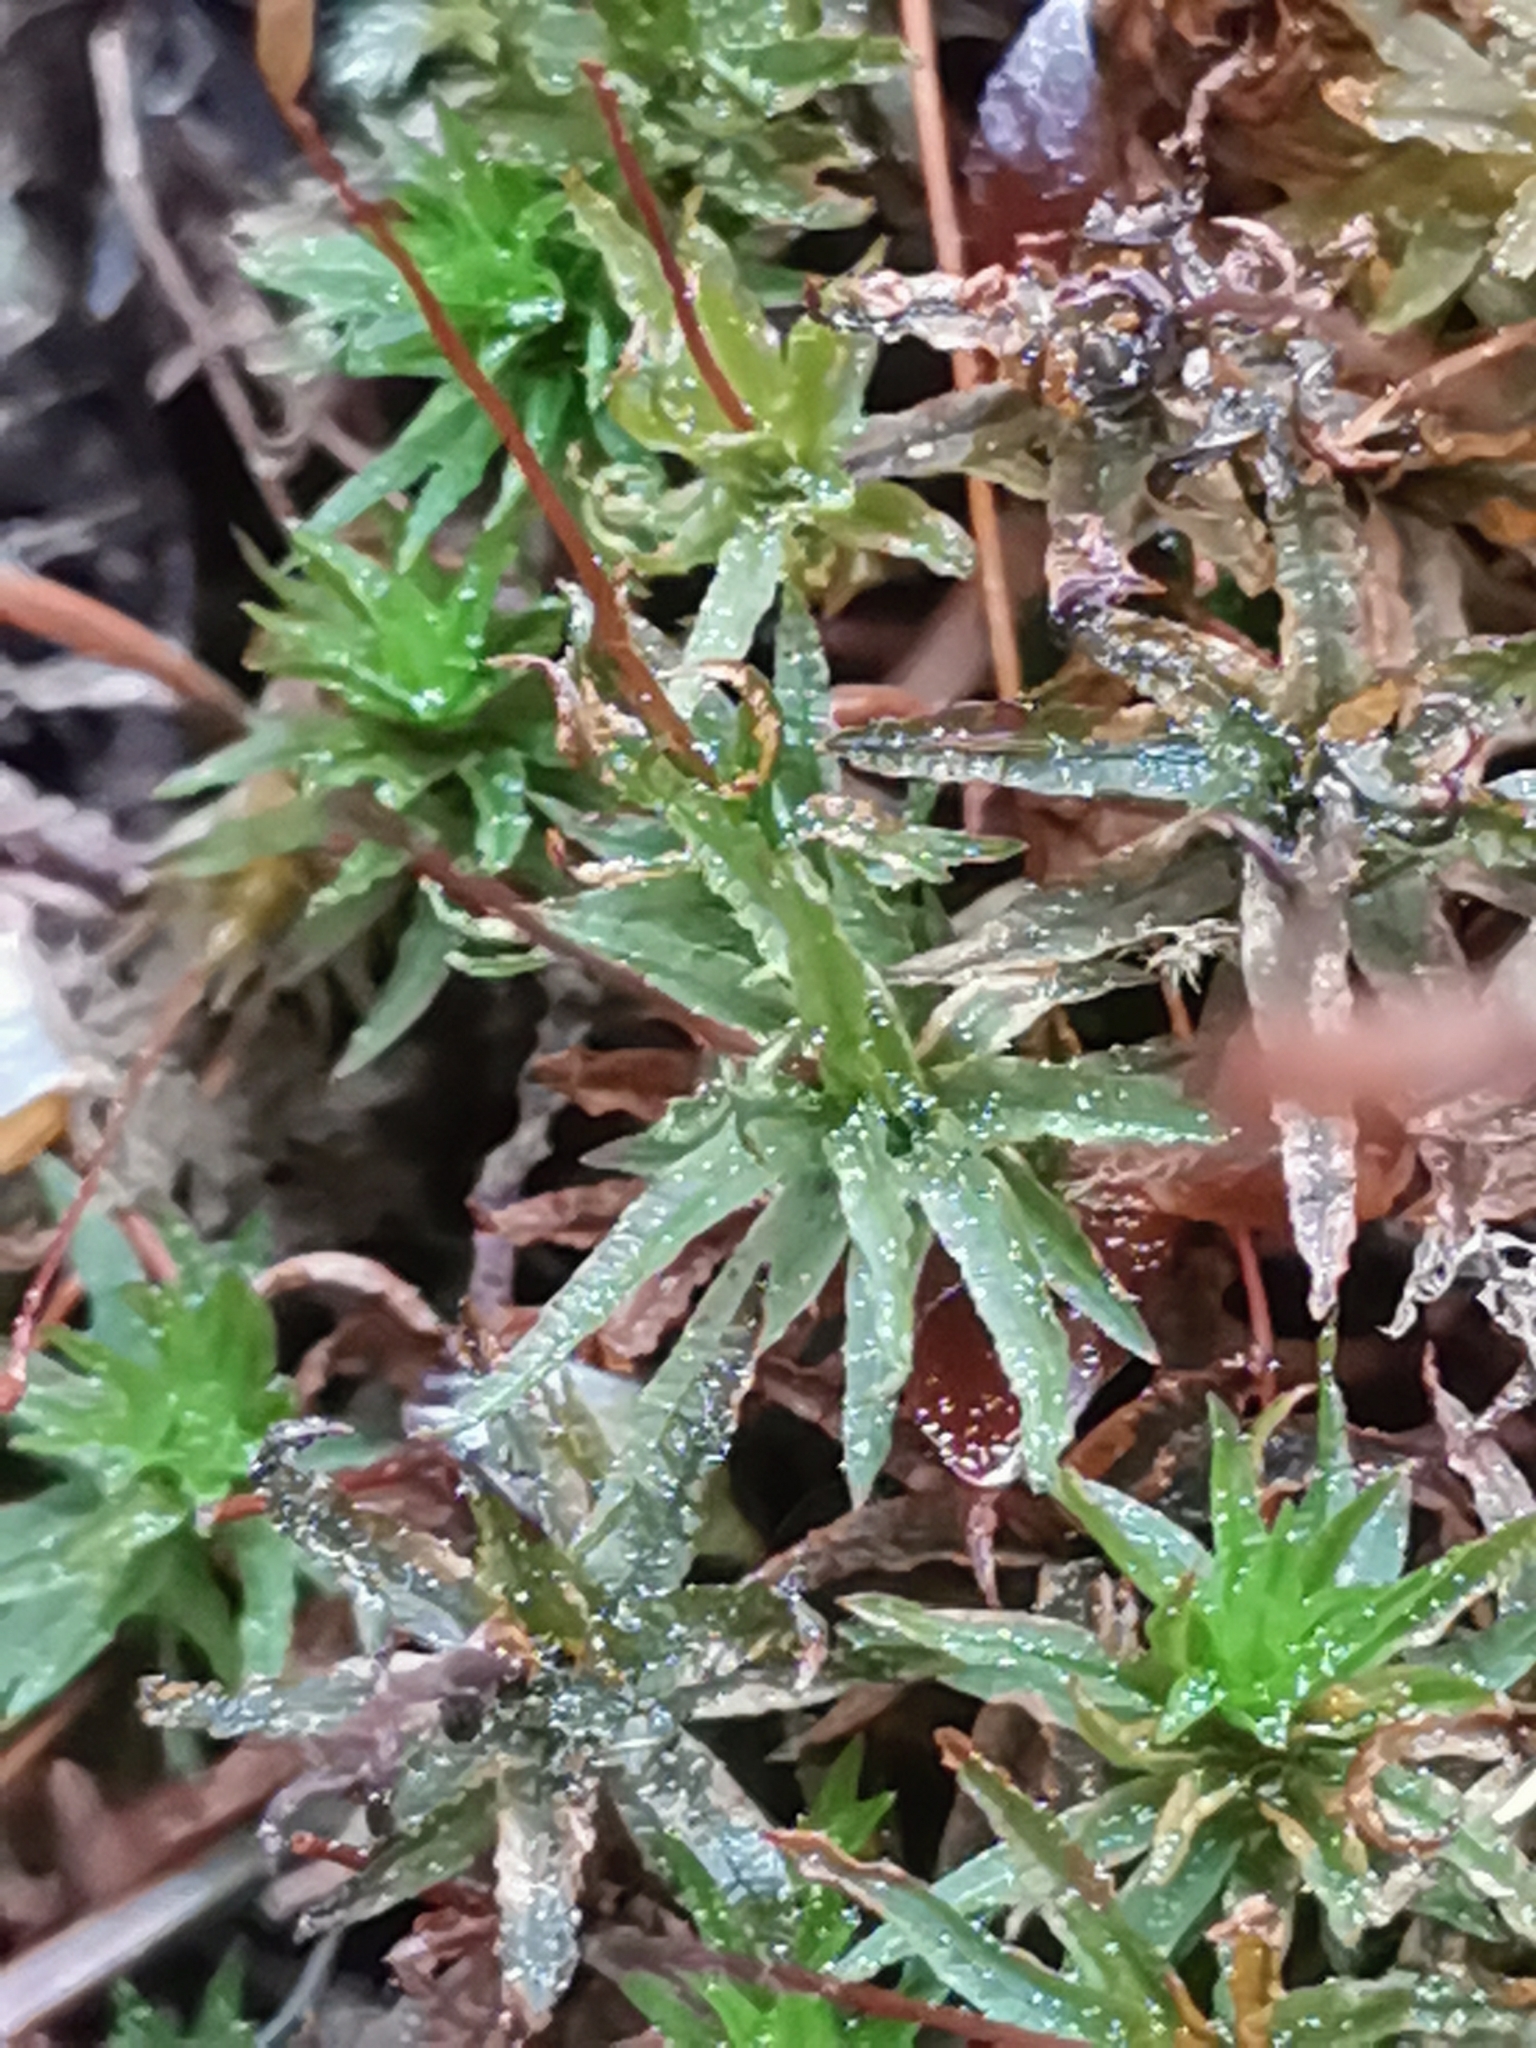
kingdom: Plantae
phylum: Bryophyta
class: Polytrichopsida
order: Polytrichales
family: Polytrichaceae
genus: Atrichum
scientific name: Atrichum undulatum
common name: Common smoothcap
